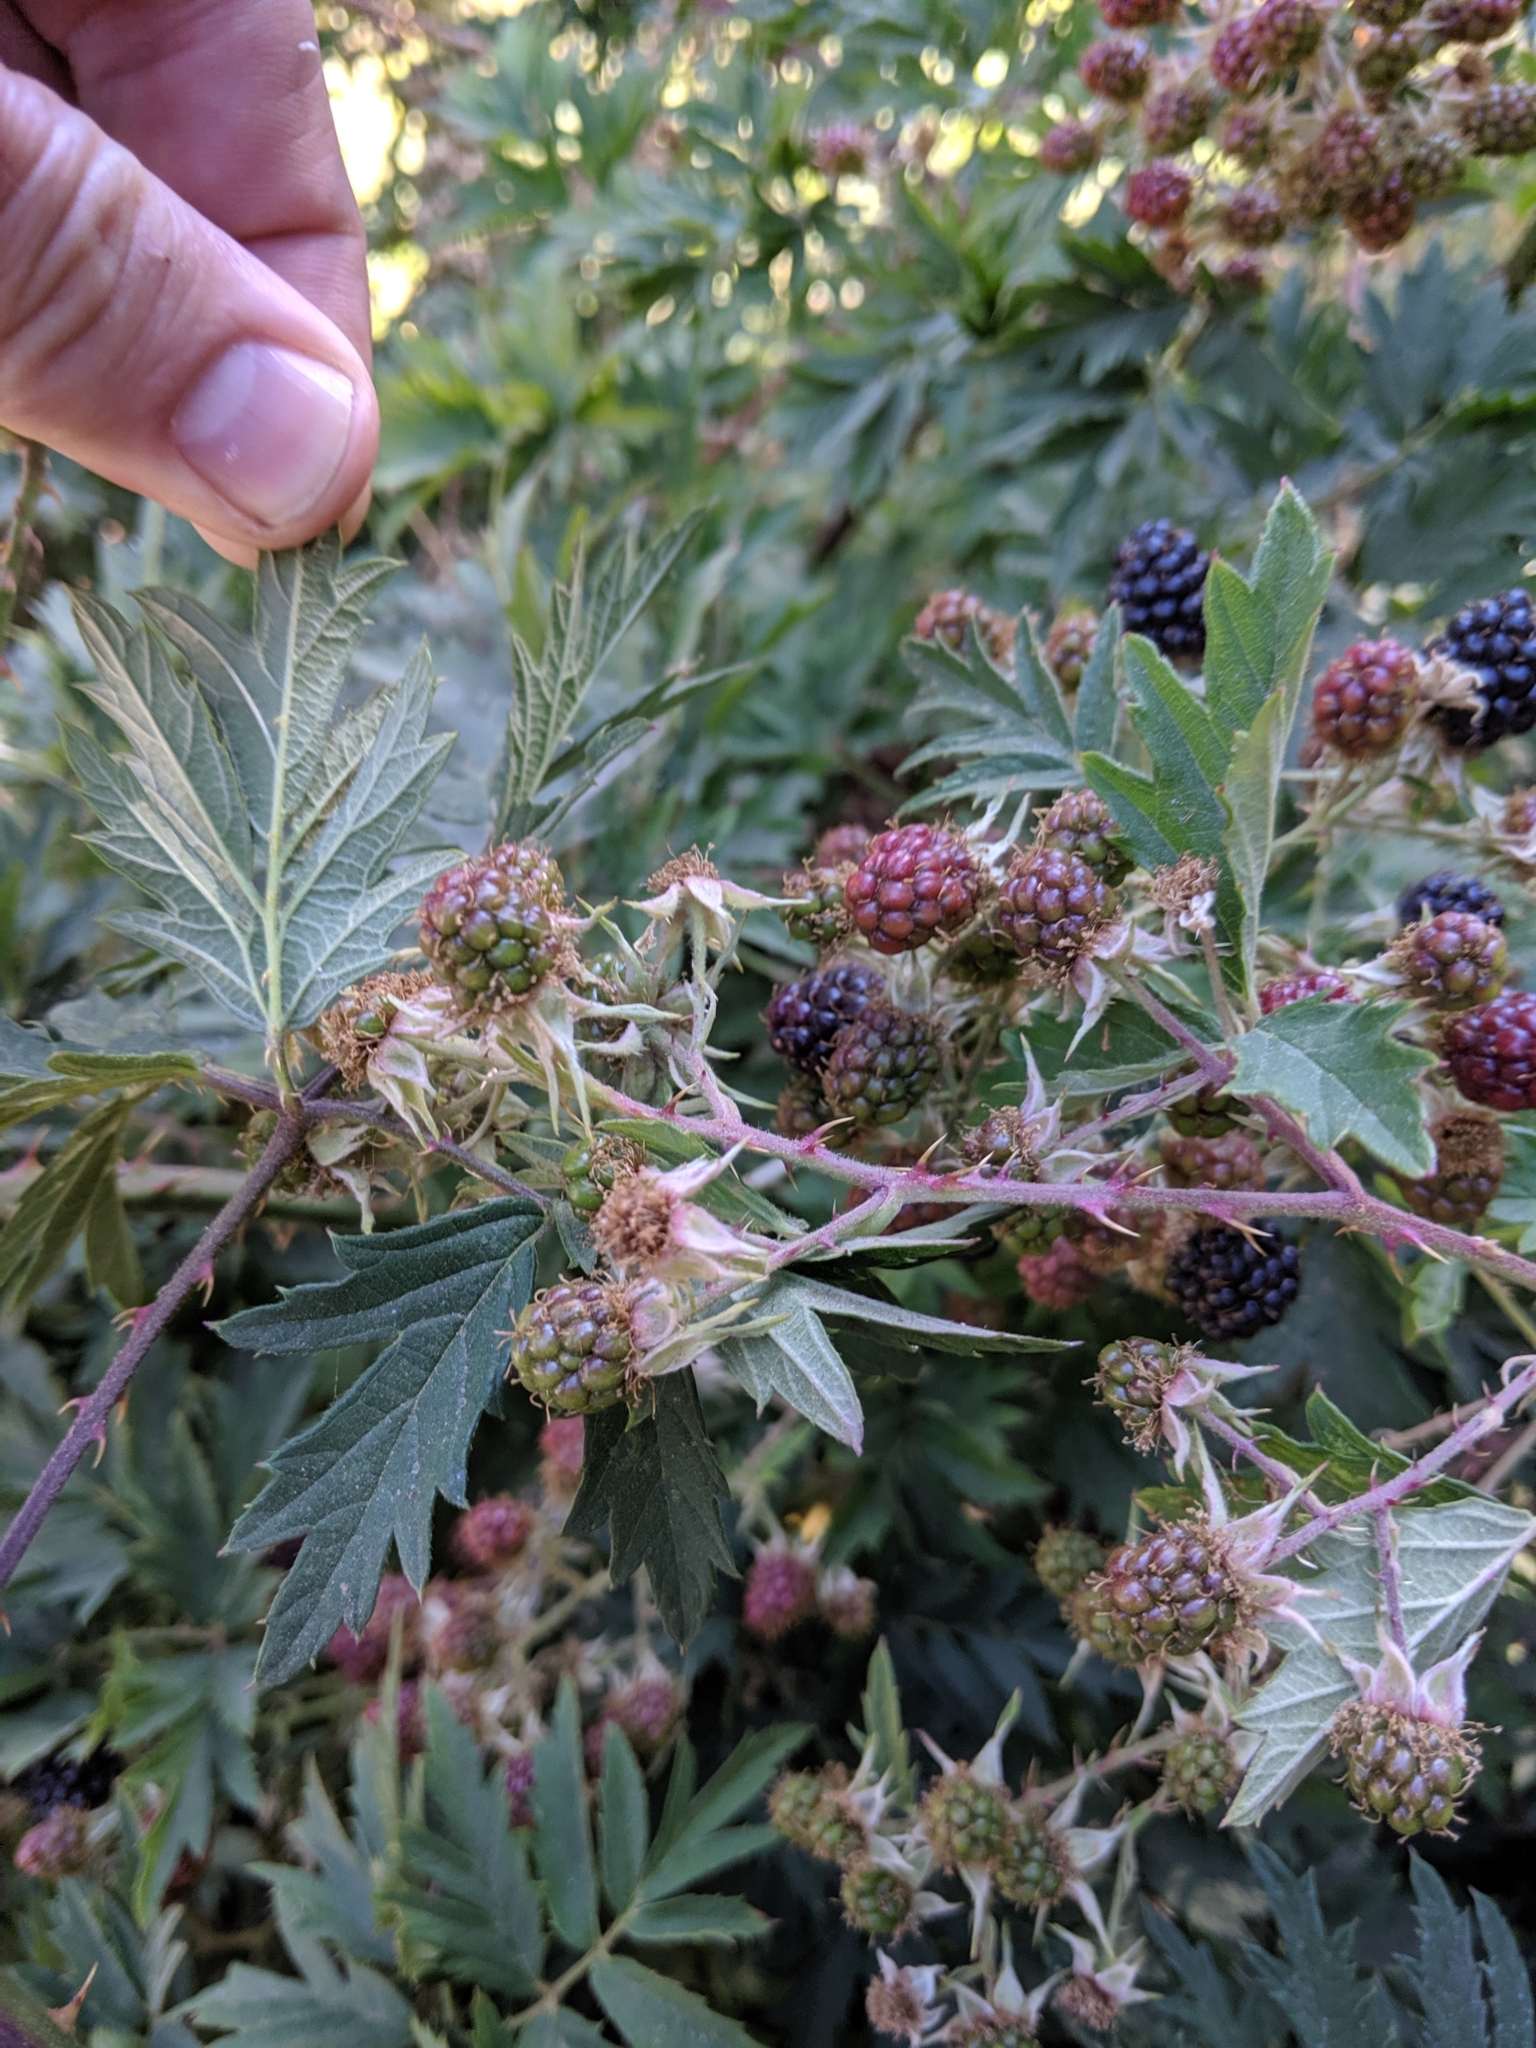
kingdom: Plantae
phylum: Tracheophyta
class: Magnoliopsida
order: Rosales
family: Rosaceae
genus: Rubus
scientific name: Rubus laciniatus
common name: Evergreen blackberry
